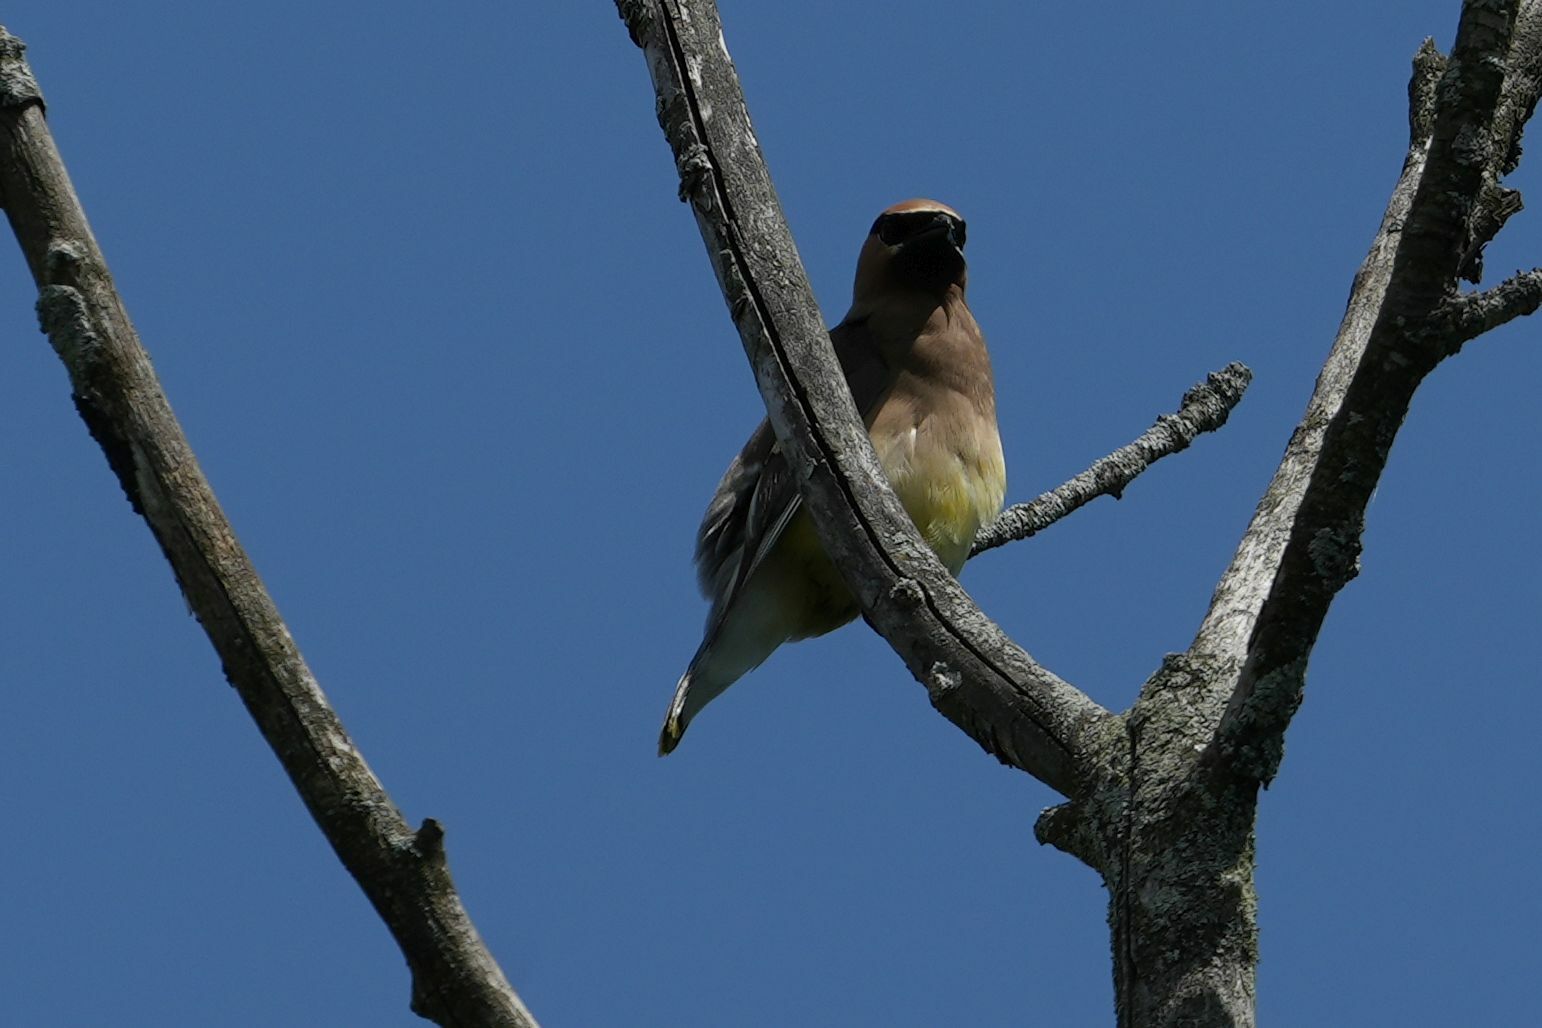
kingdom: Animalia
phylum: Chordata
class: Aves
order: Passeriformes
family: Bombycillidae
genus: Bombycilla
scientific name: Bombycilla cedrorum
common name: Cedar waxwing
